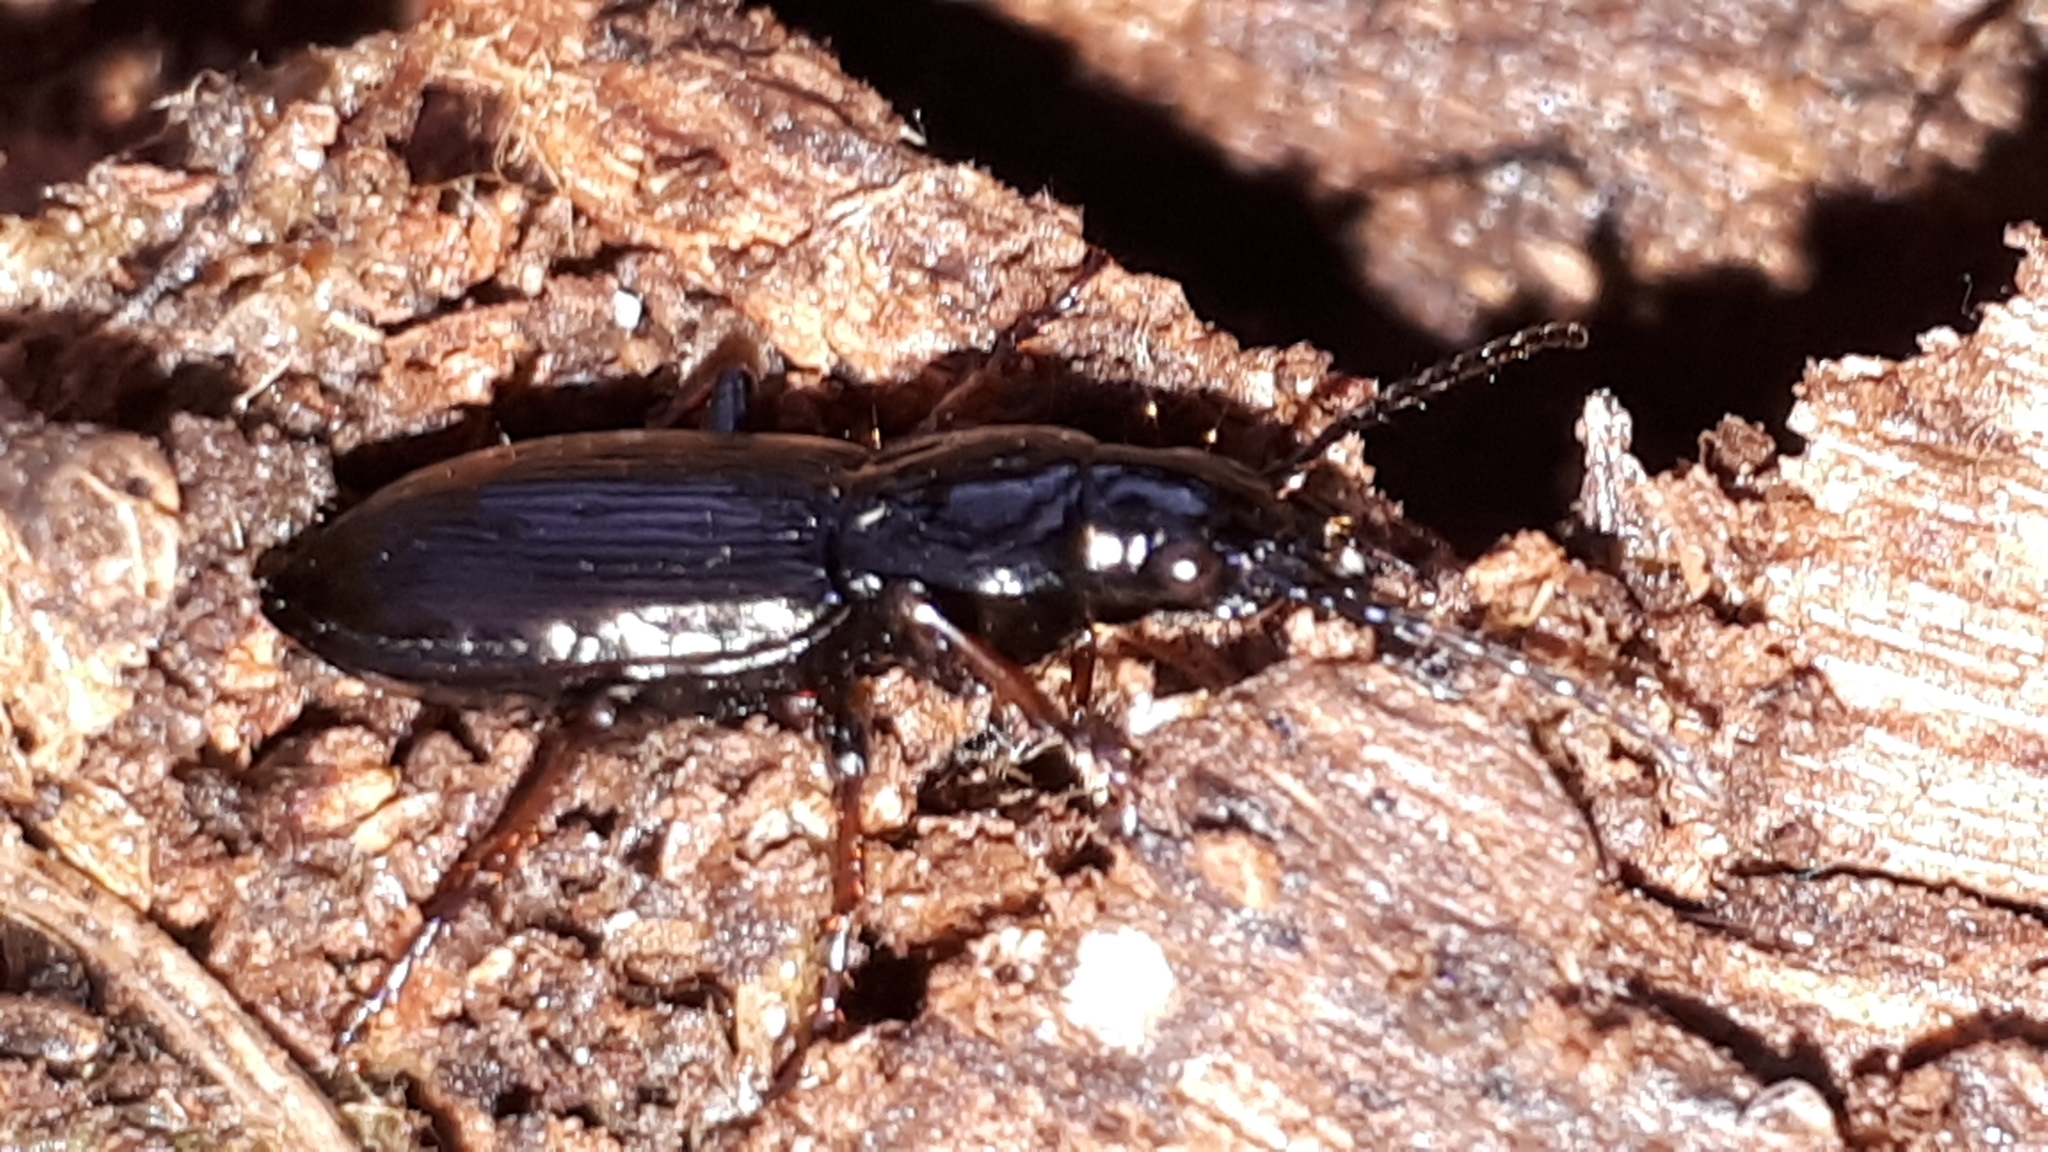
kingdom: Animalia
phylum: Arthropoda
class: Insecta
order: Coleoptera
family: Carabidae
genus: Pterostichus
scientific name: Pterostichus oblongopunctatus
